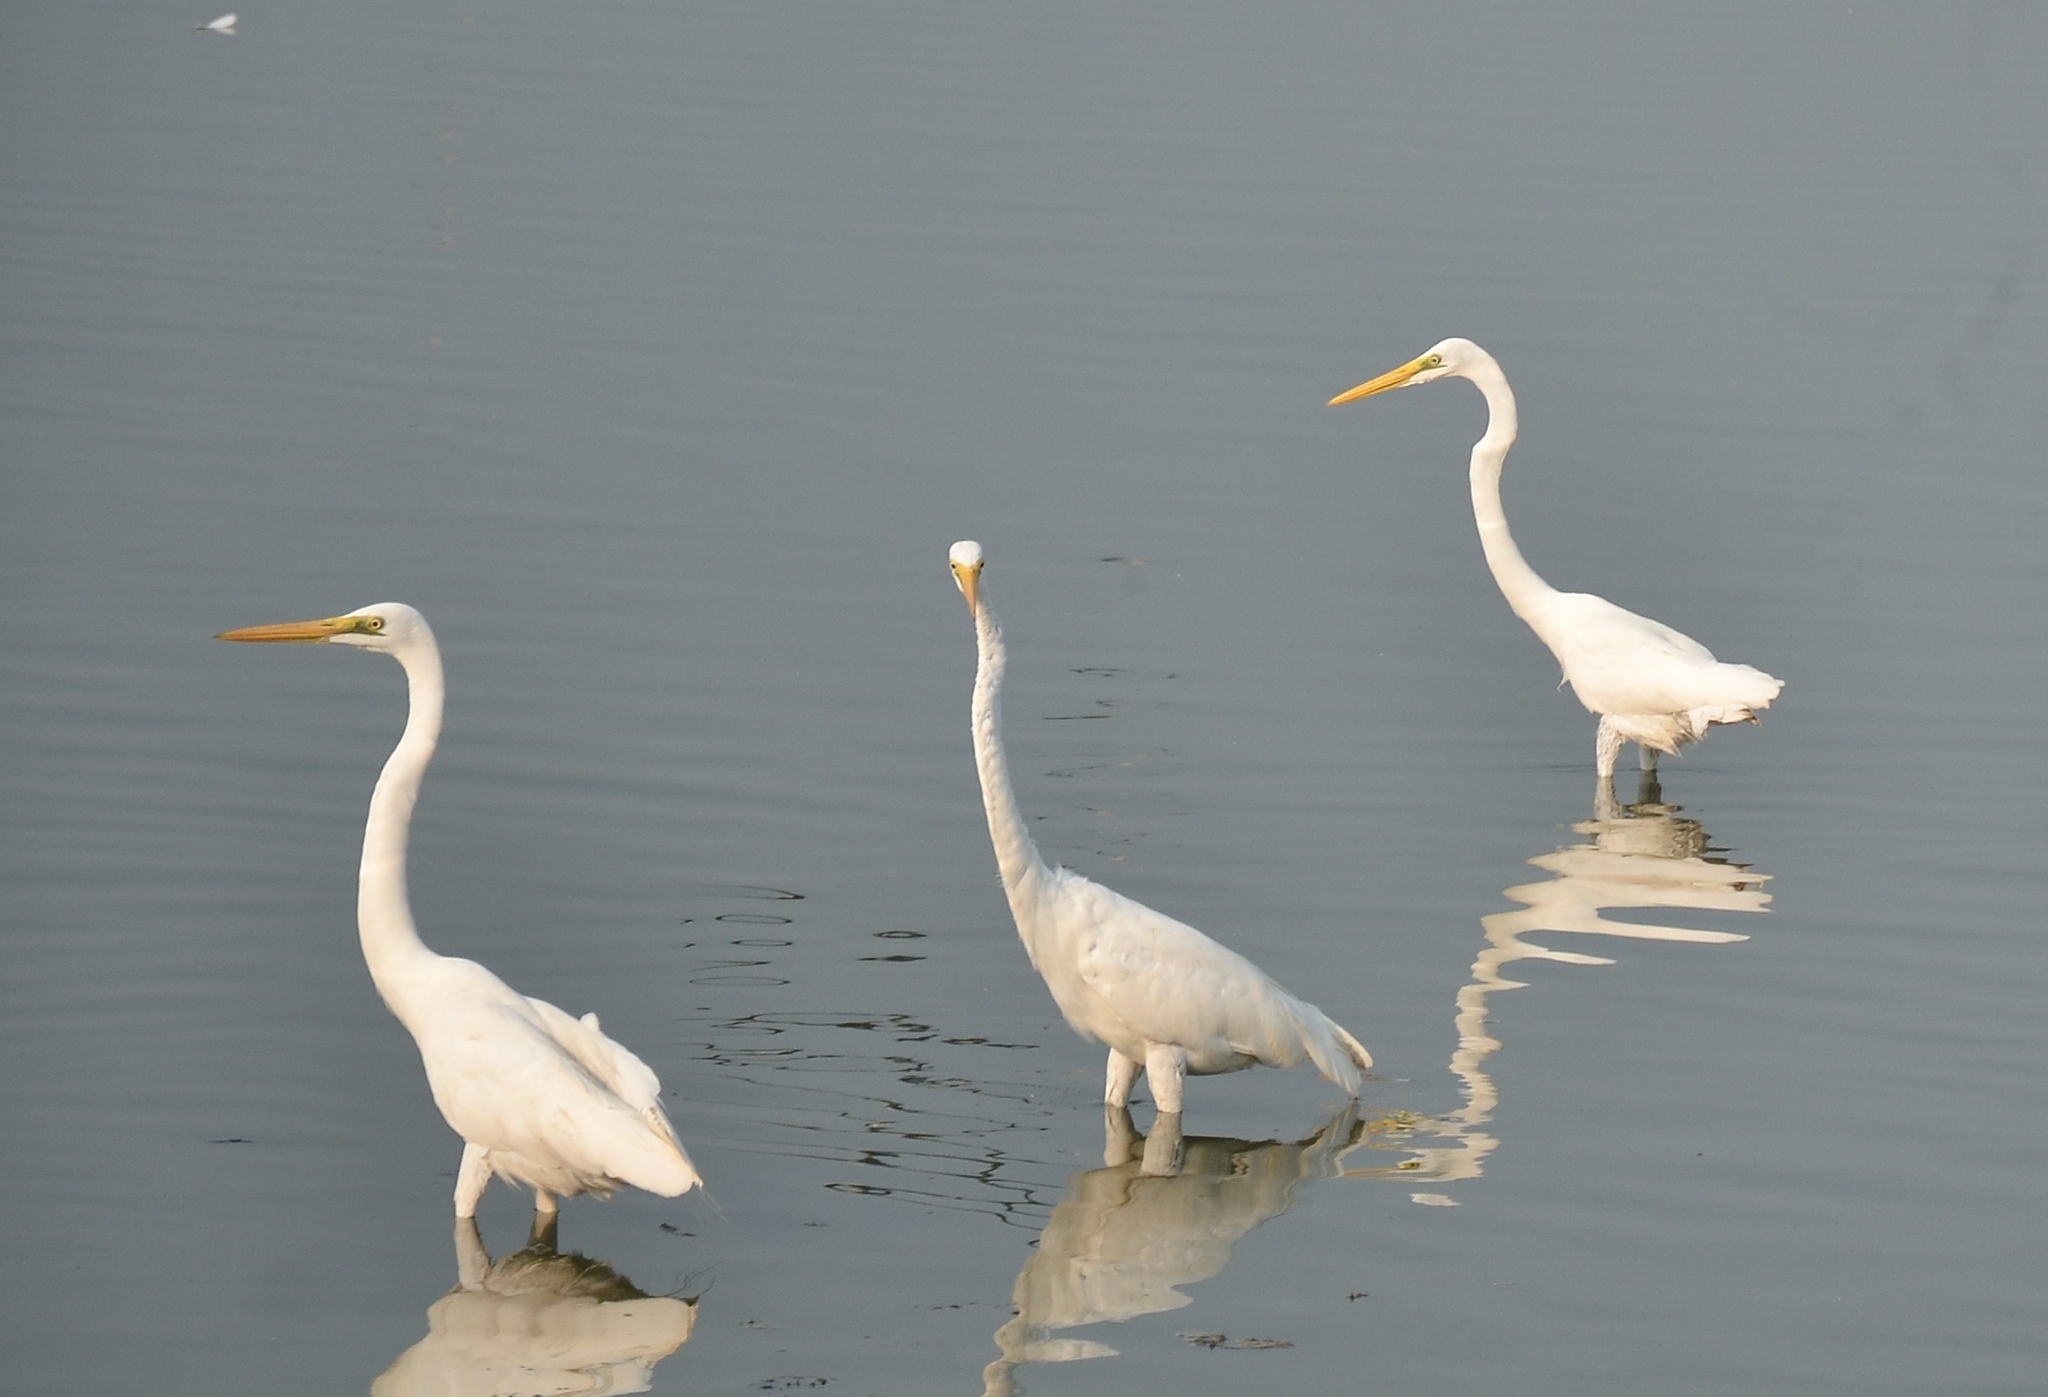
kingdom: Animalia
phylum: Chordata
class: Aves
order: Pelecaniformes
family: Ardeidae
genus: Ardea
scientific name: Ardea alba
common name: Great egret
